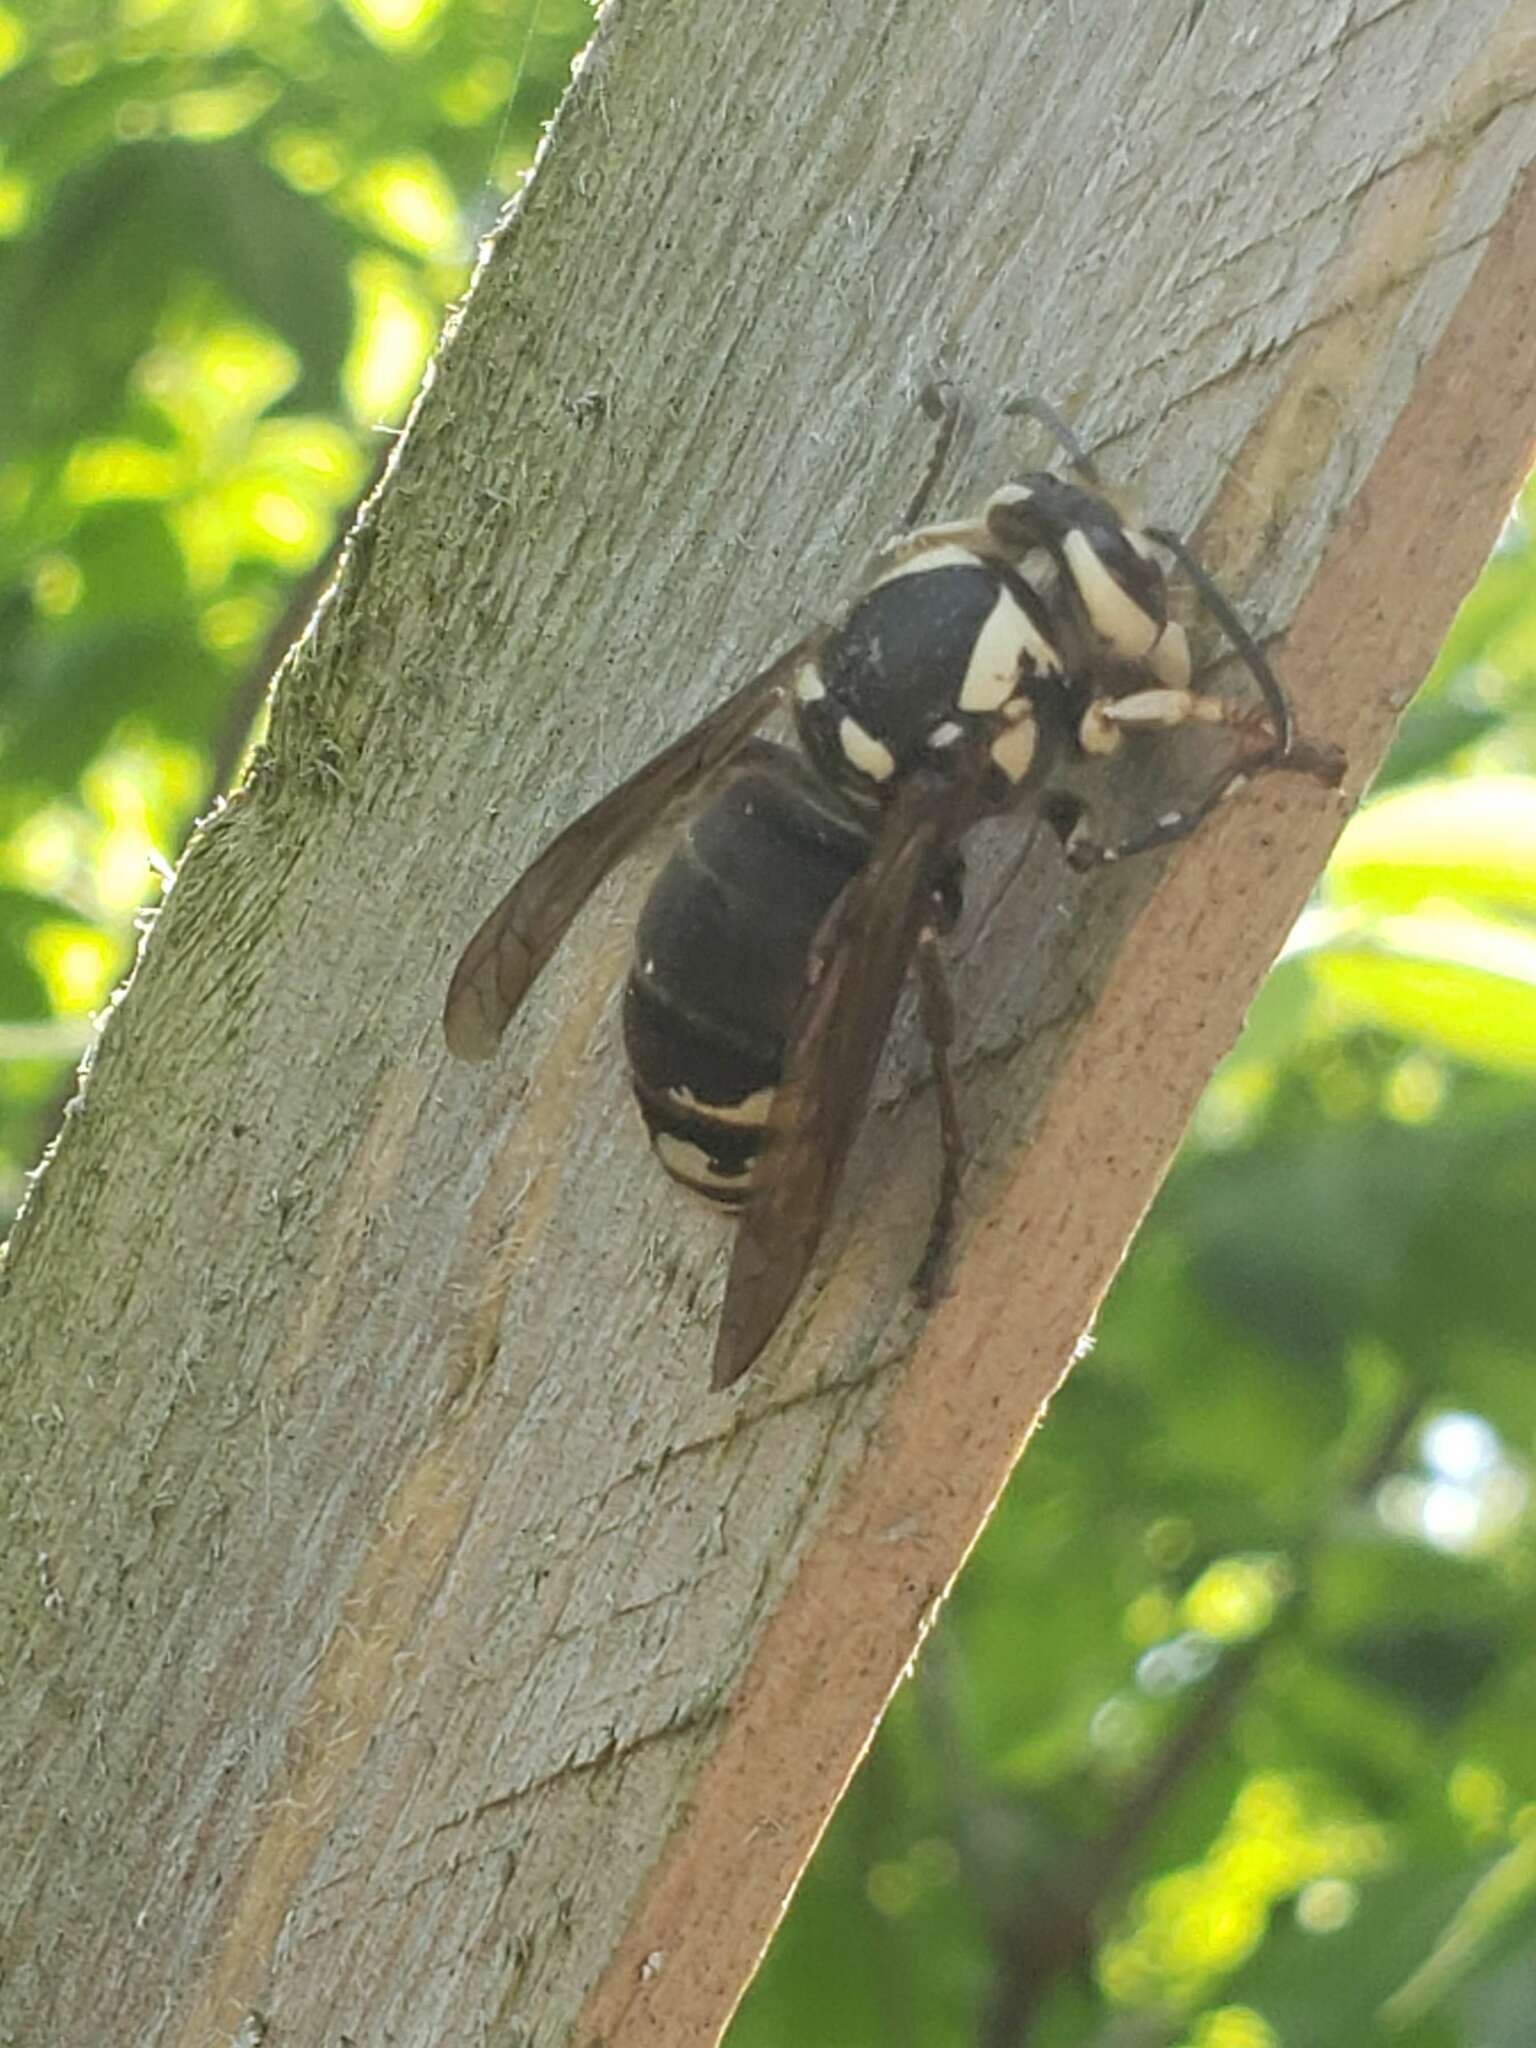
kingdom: Animalia
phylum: Arthropoda
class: Insecta
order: Hymenoptera
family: Vespidae
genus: Dolichovespula
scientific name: Dolichovespula maculata
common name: Bald-faced hornet
